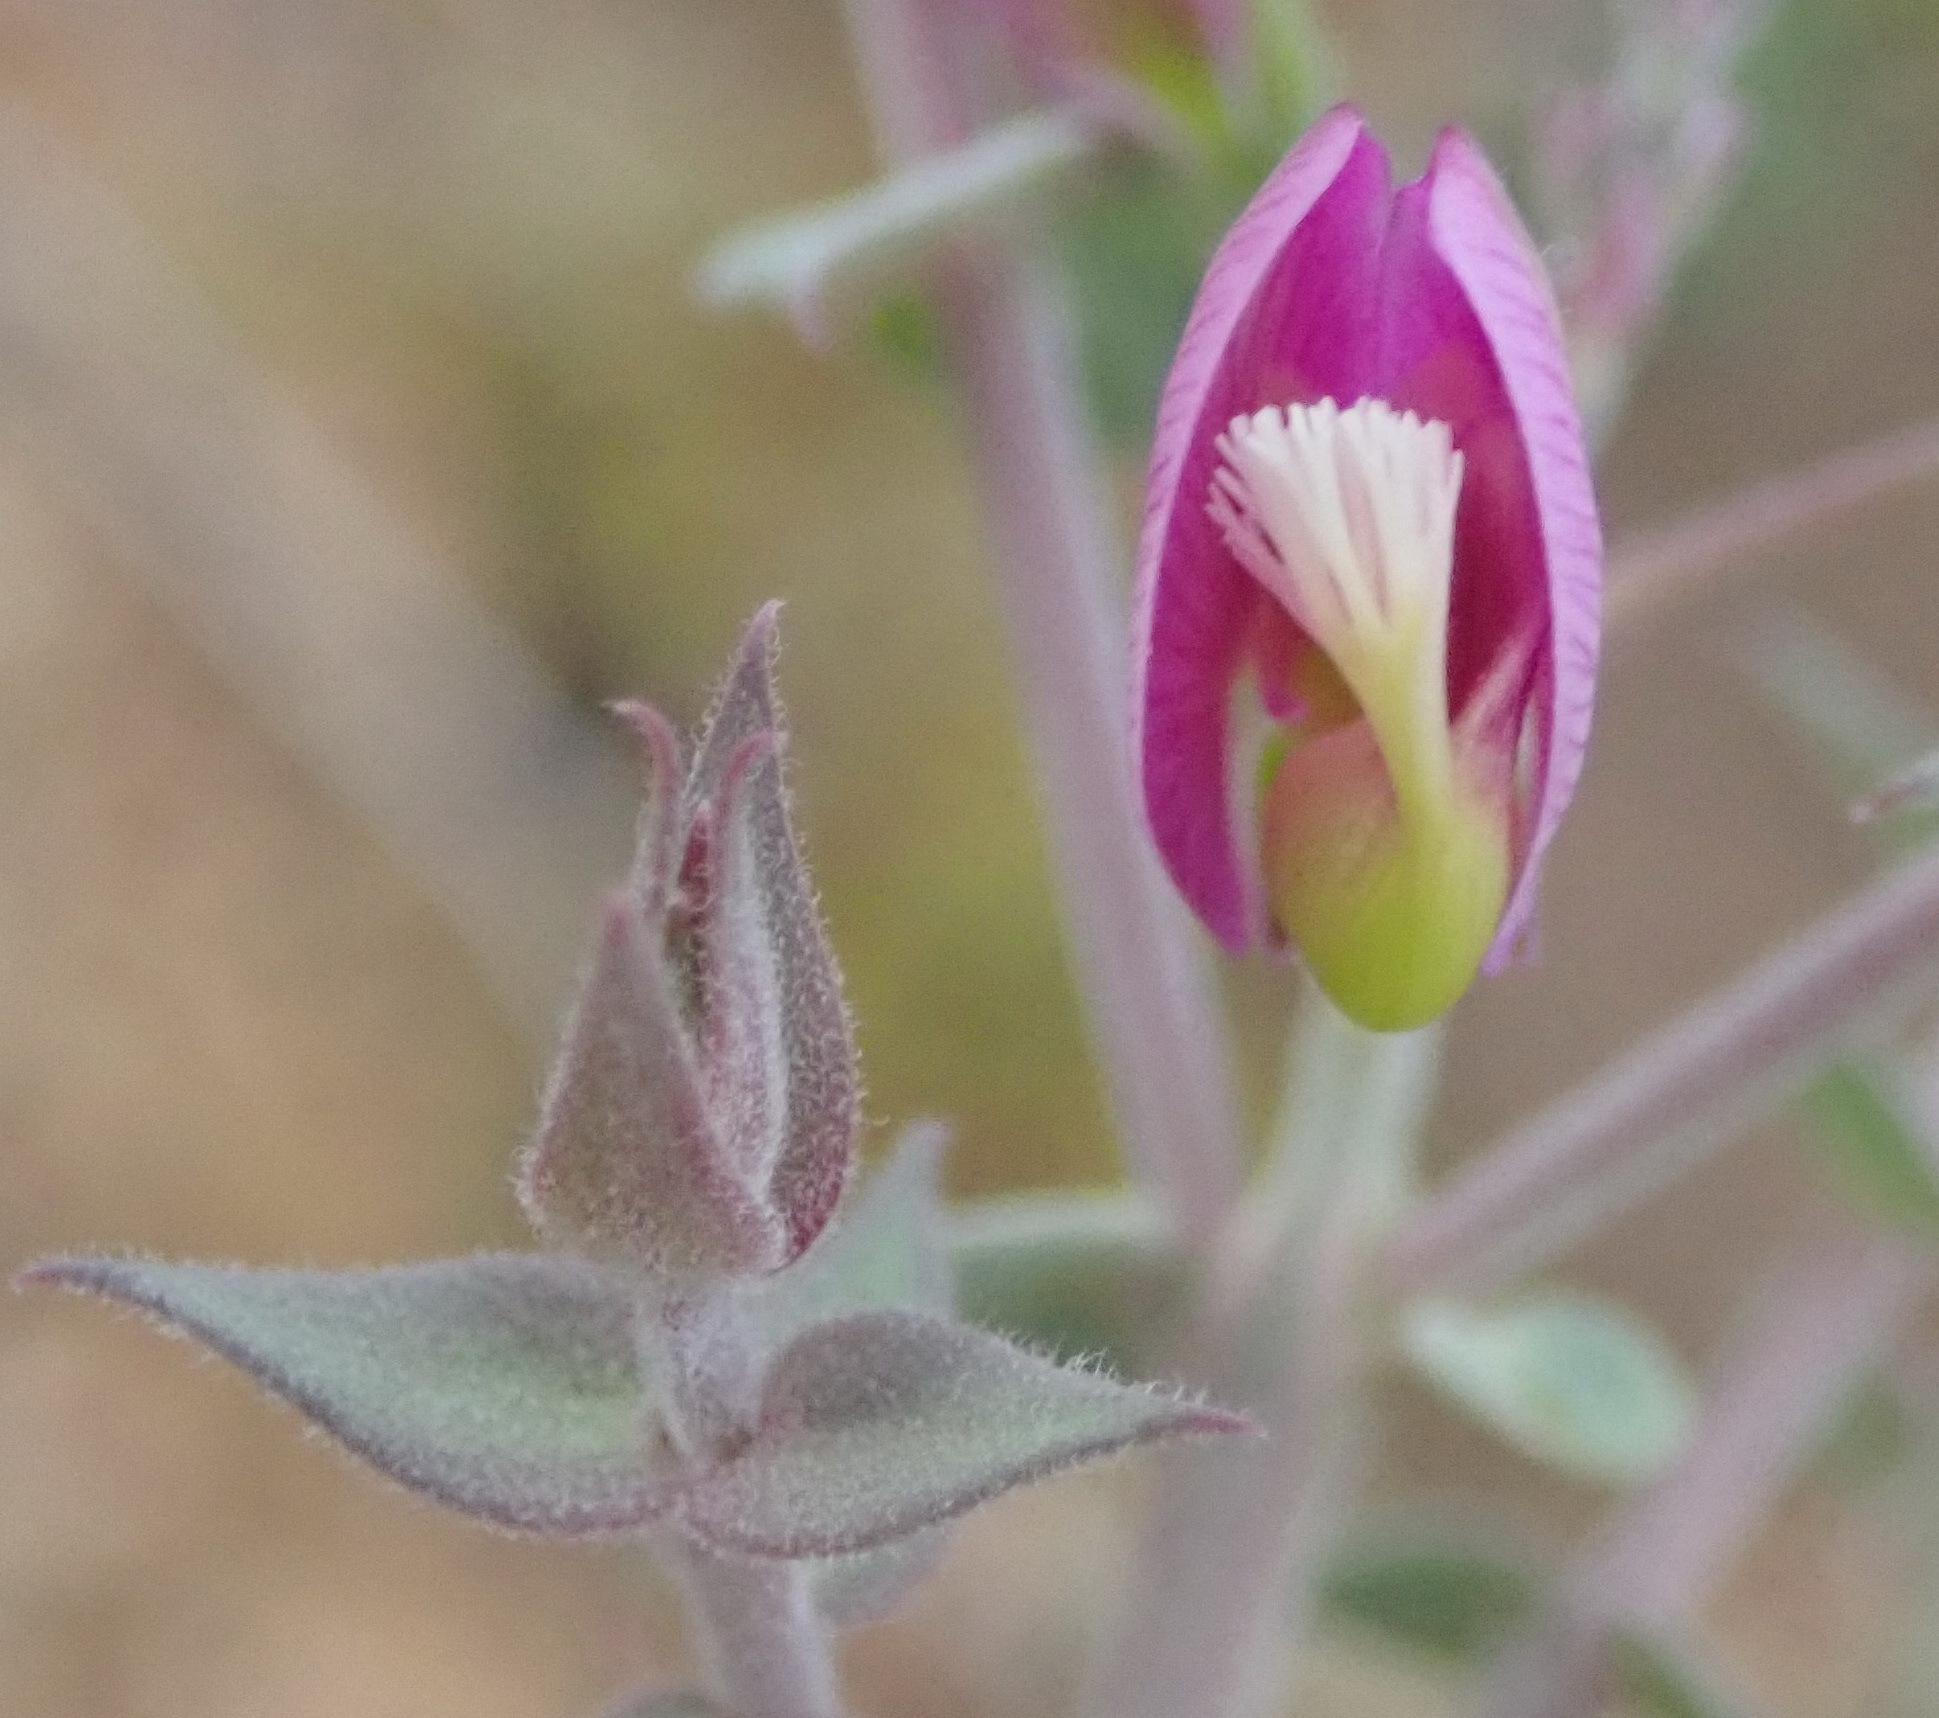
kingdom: Plantae
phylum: Tracheophyta
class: Magnoliopsida
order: Fabales
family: Polygalaceae
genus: Polygala
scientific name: Polygala fruticosa
